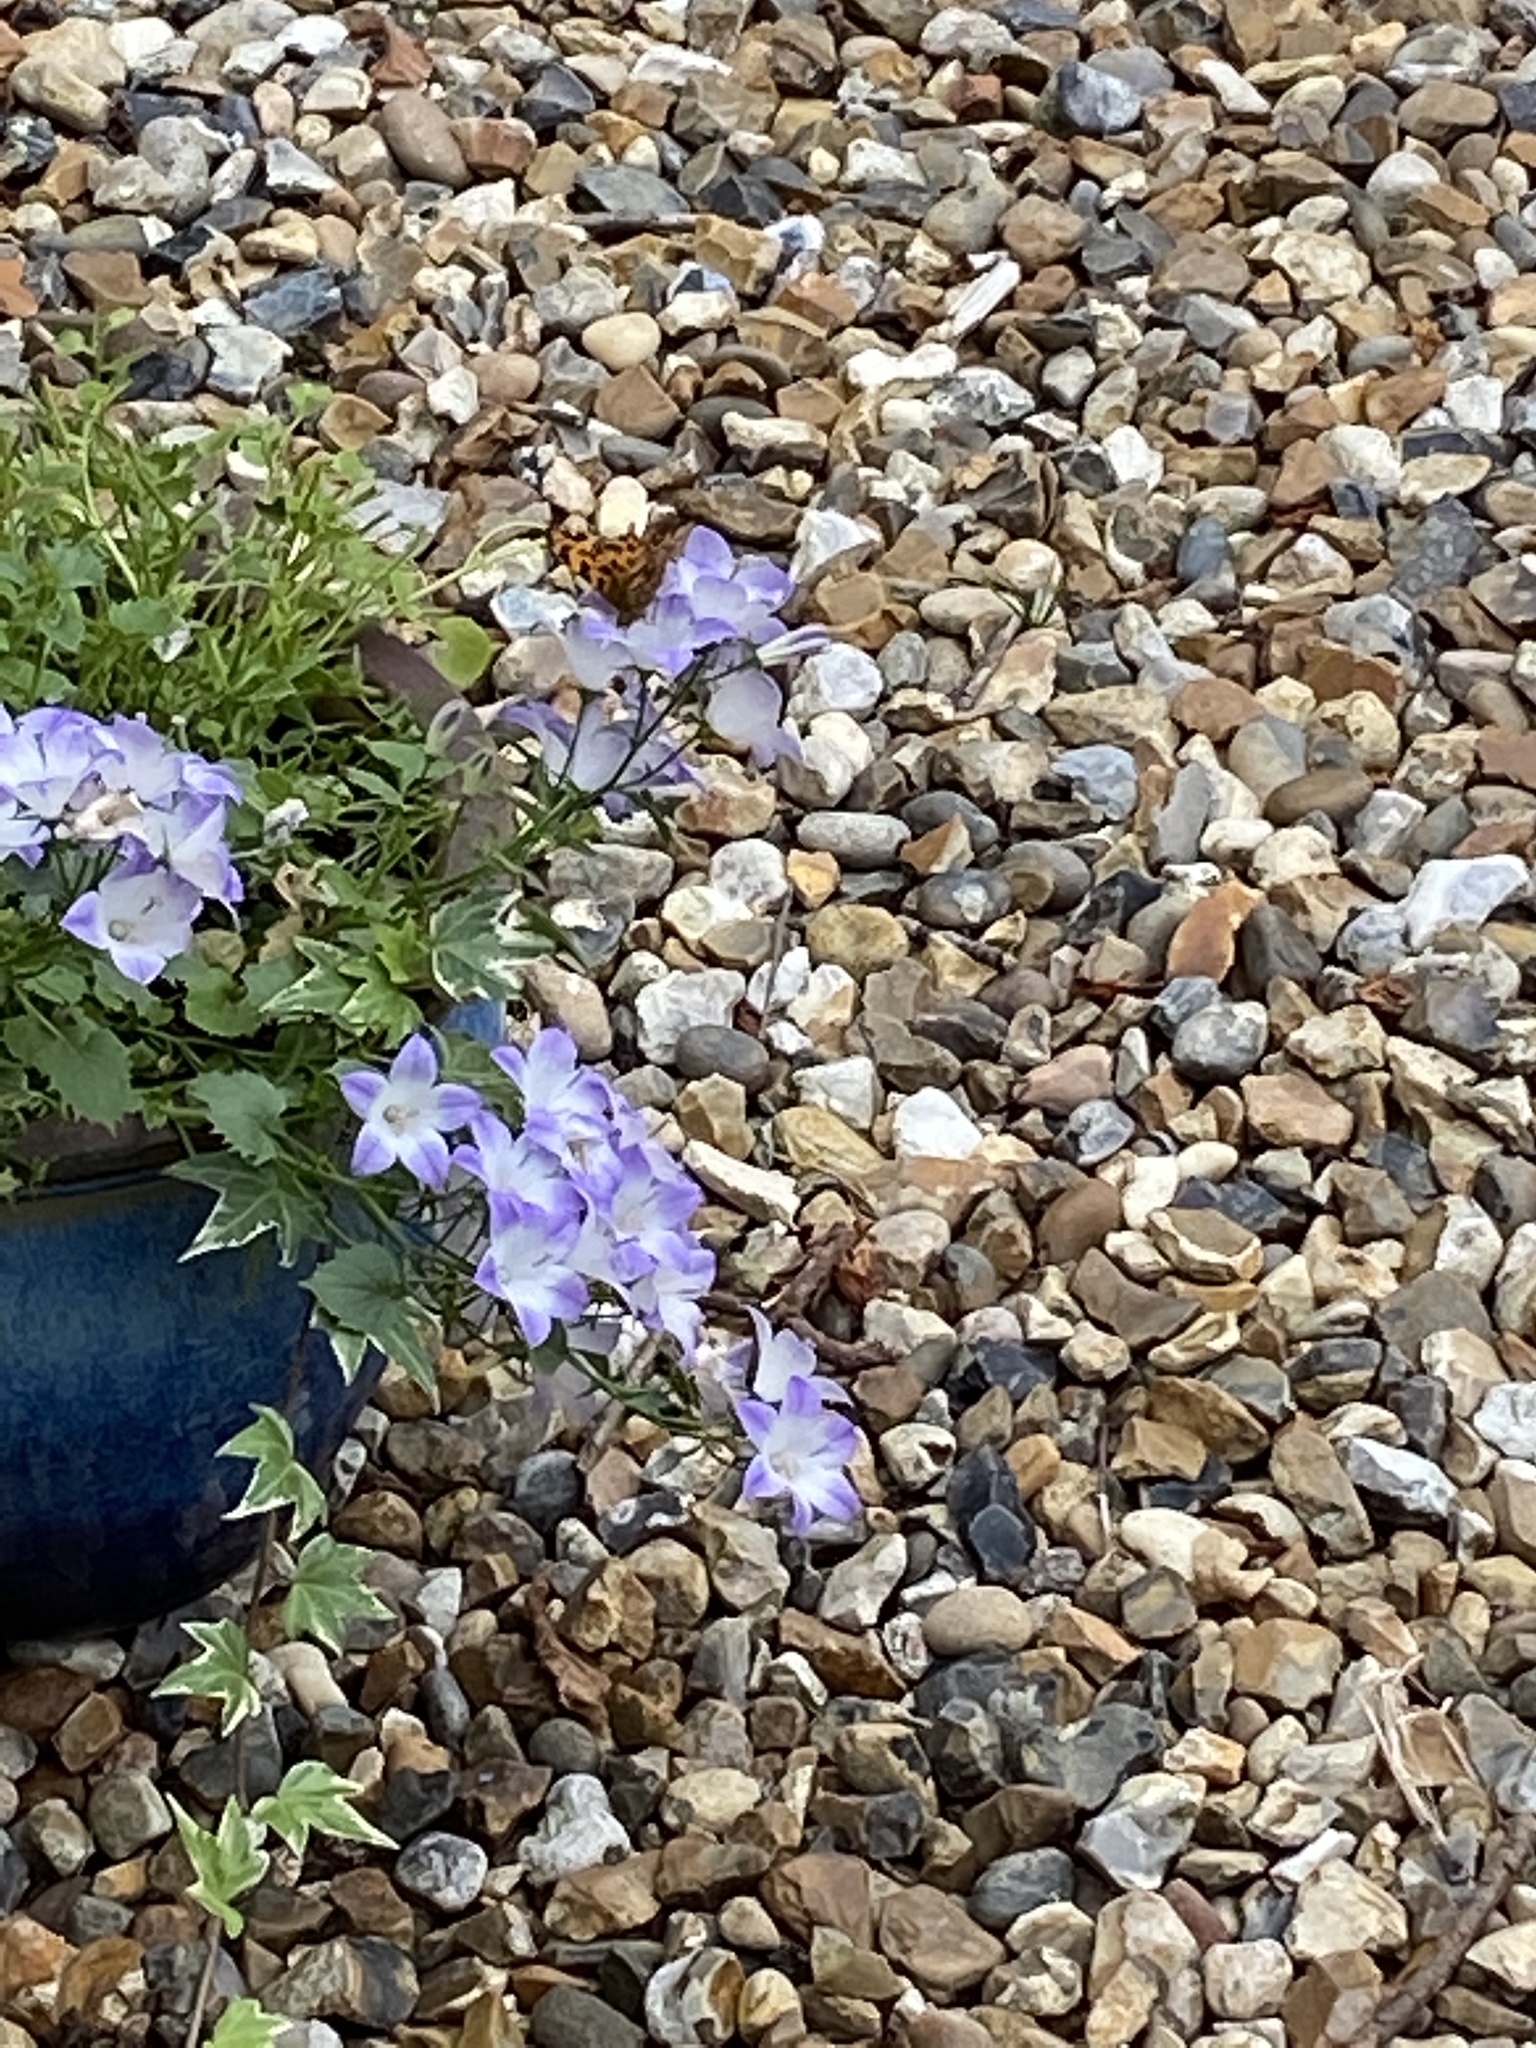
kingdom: Animalia
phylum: Arthropoda
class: Insecta
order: Lepidoptera
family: Nymphalidae
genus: Polygonia
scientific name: Polygonia c-album
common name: Comma
